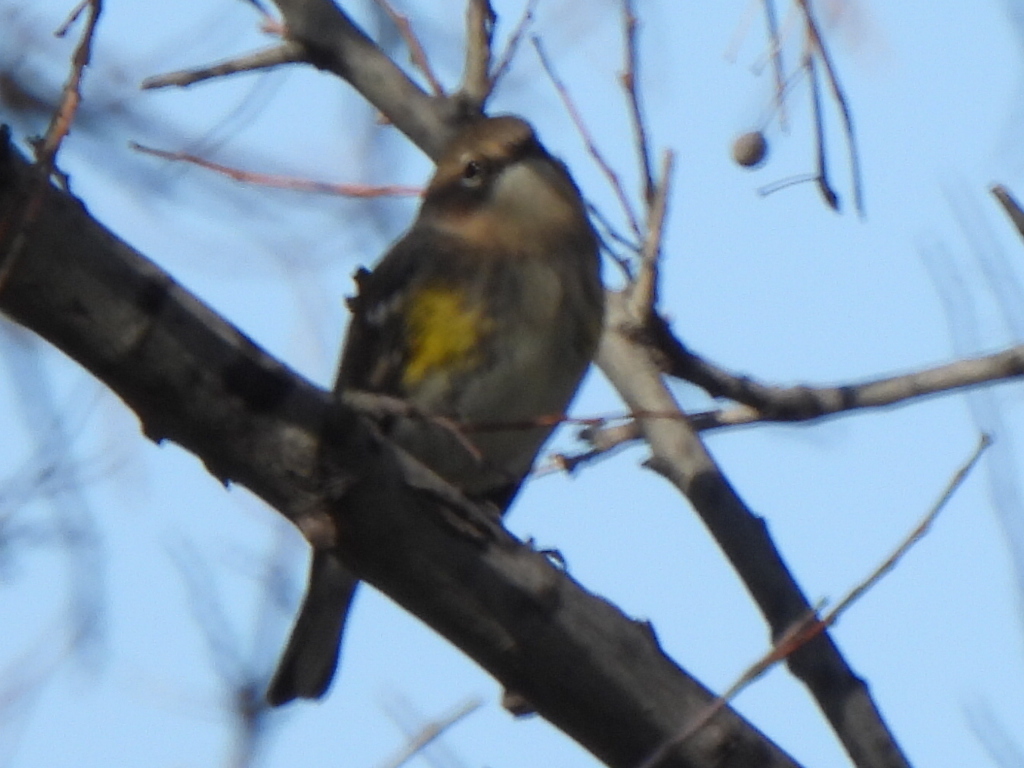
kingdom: Animalia
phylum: Chordata
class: Aves
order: Passeriformes
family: Parulidae
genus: Setophaga
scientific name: Setophaga coronata
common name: Myrtle warbler
